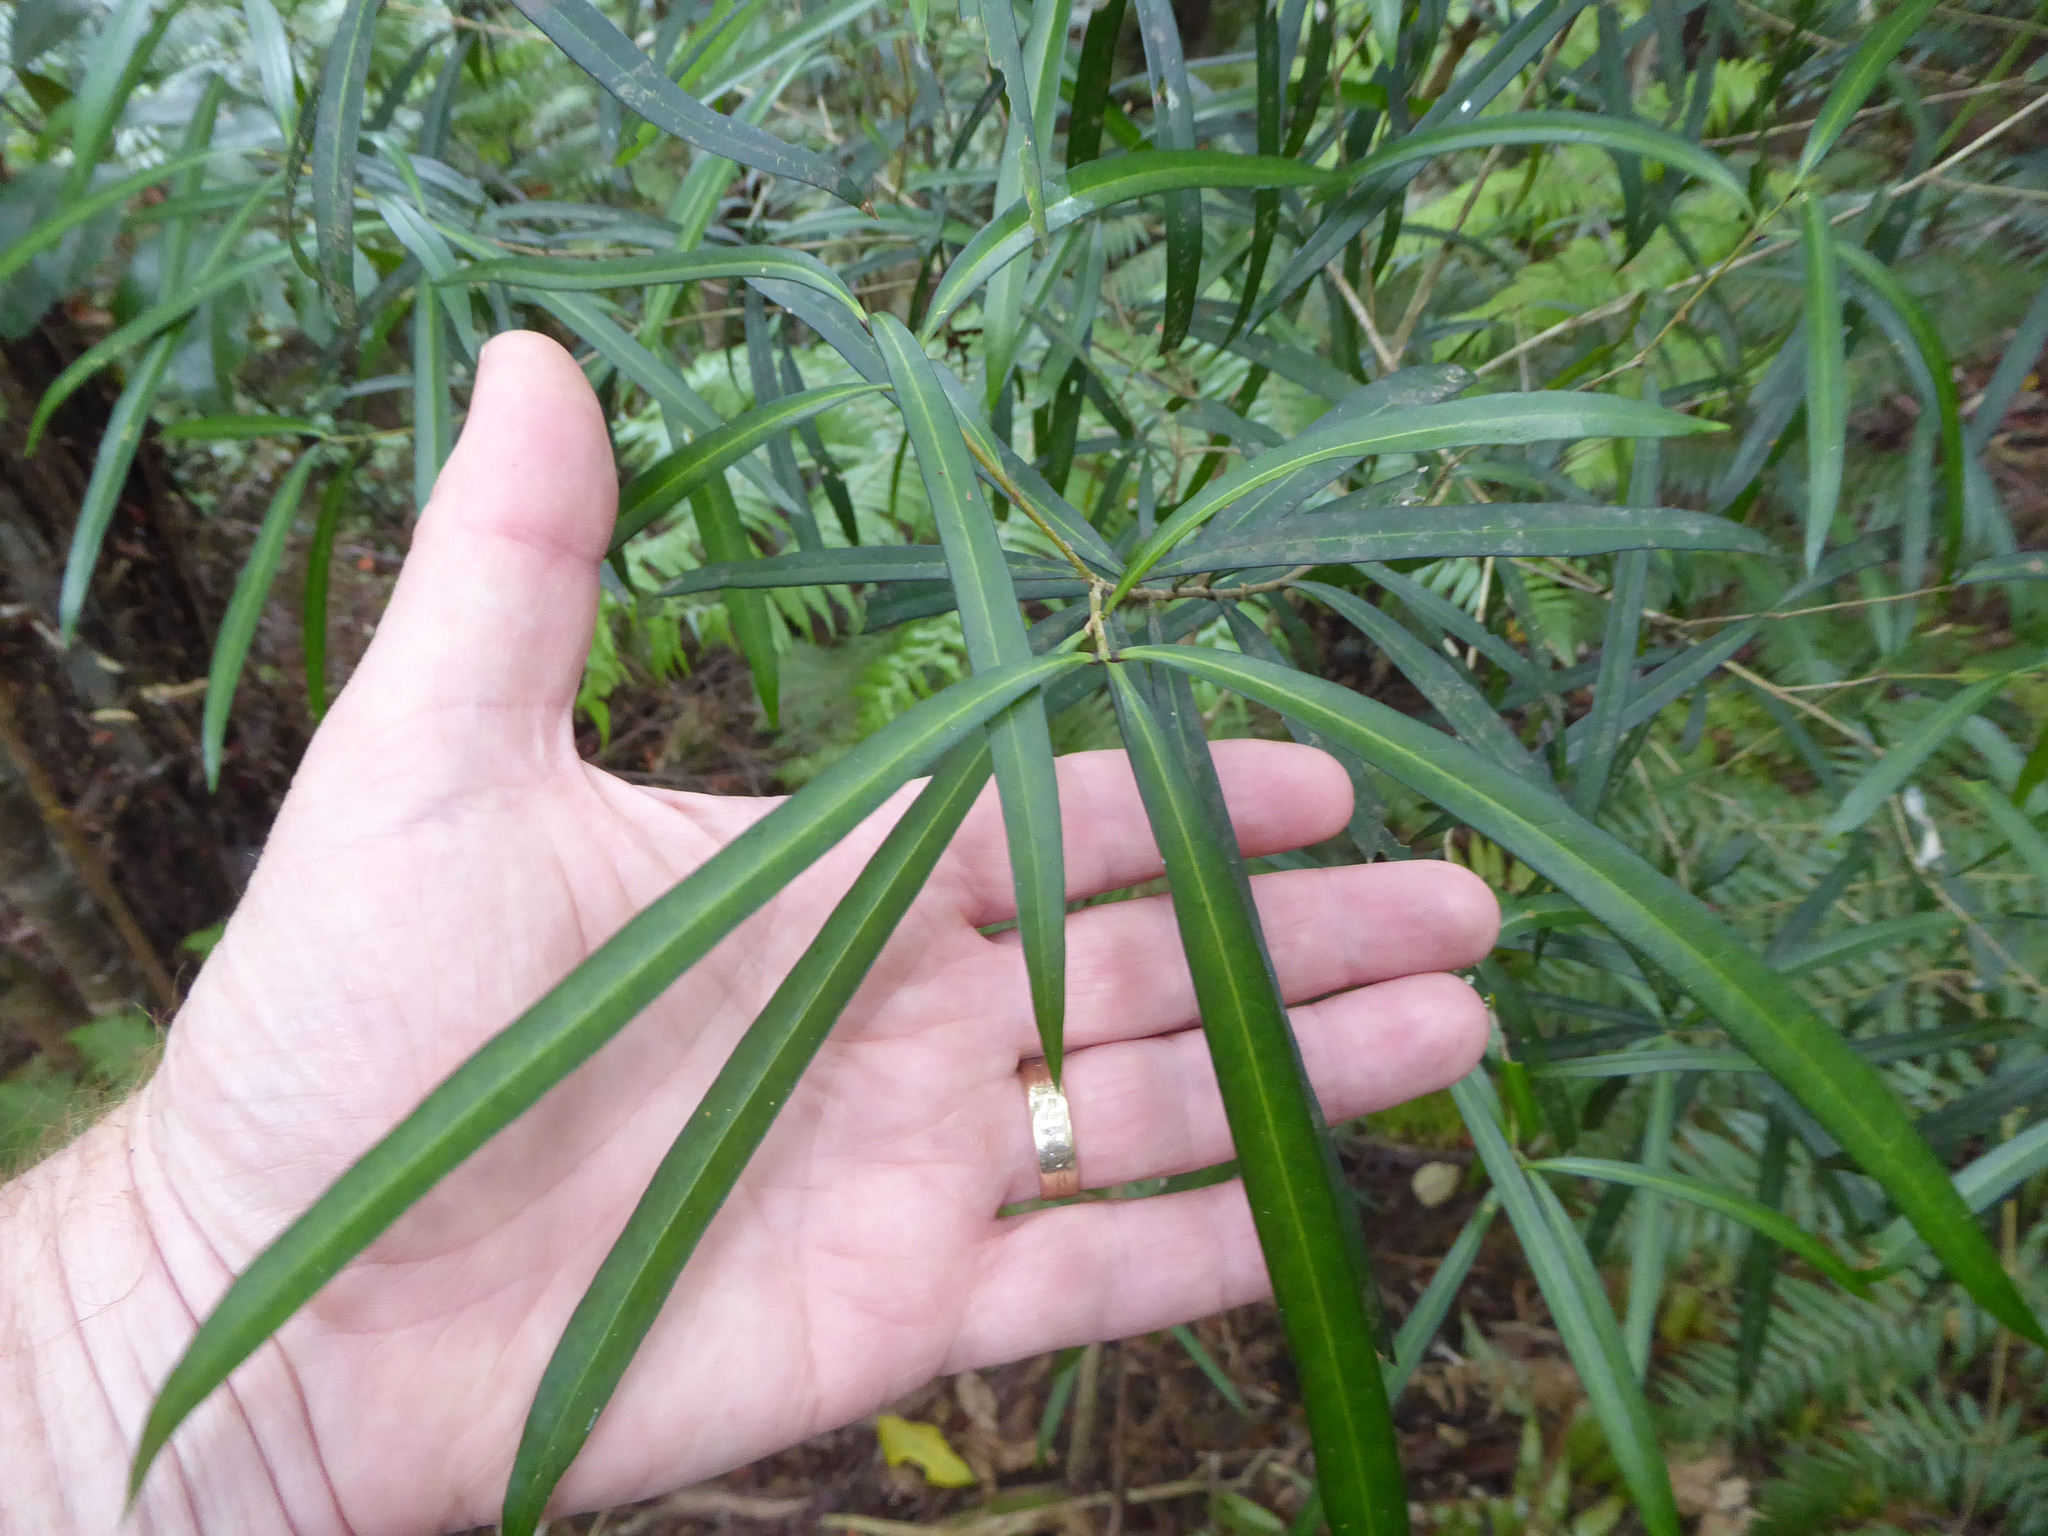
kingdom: Plantae
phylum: Tracheophyta
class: Magnoliopsida
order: Lamiales
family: Oleaceae
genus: Nestegis
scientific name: Nestegis lanceolata
